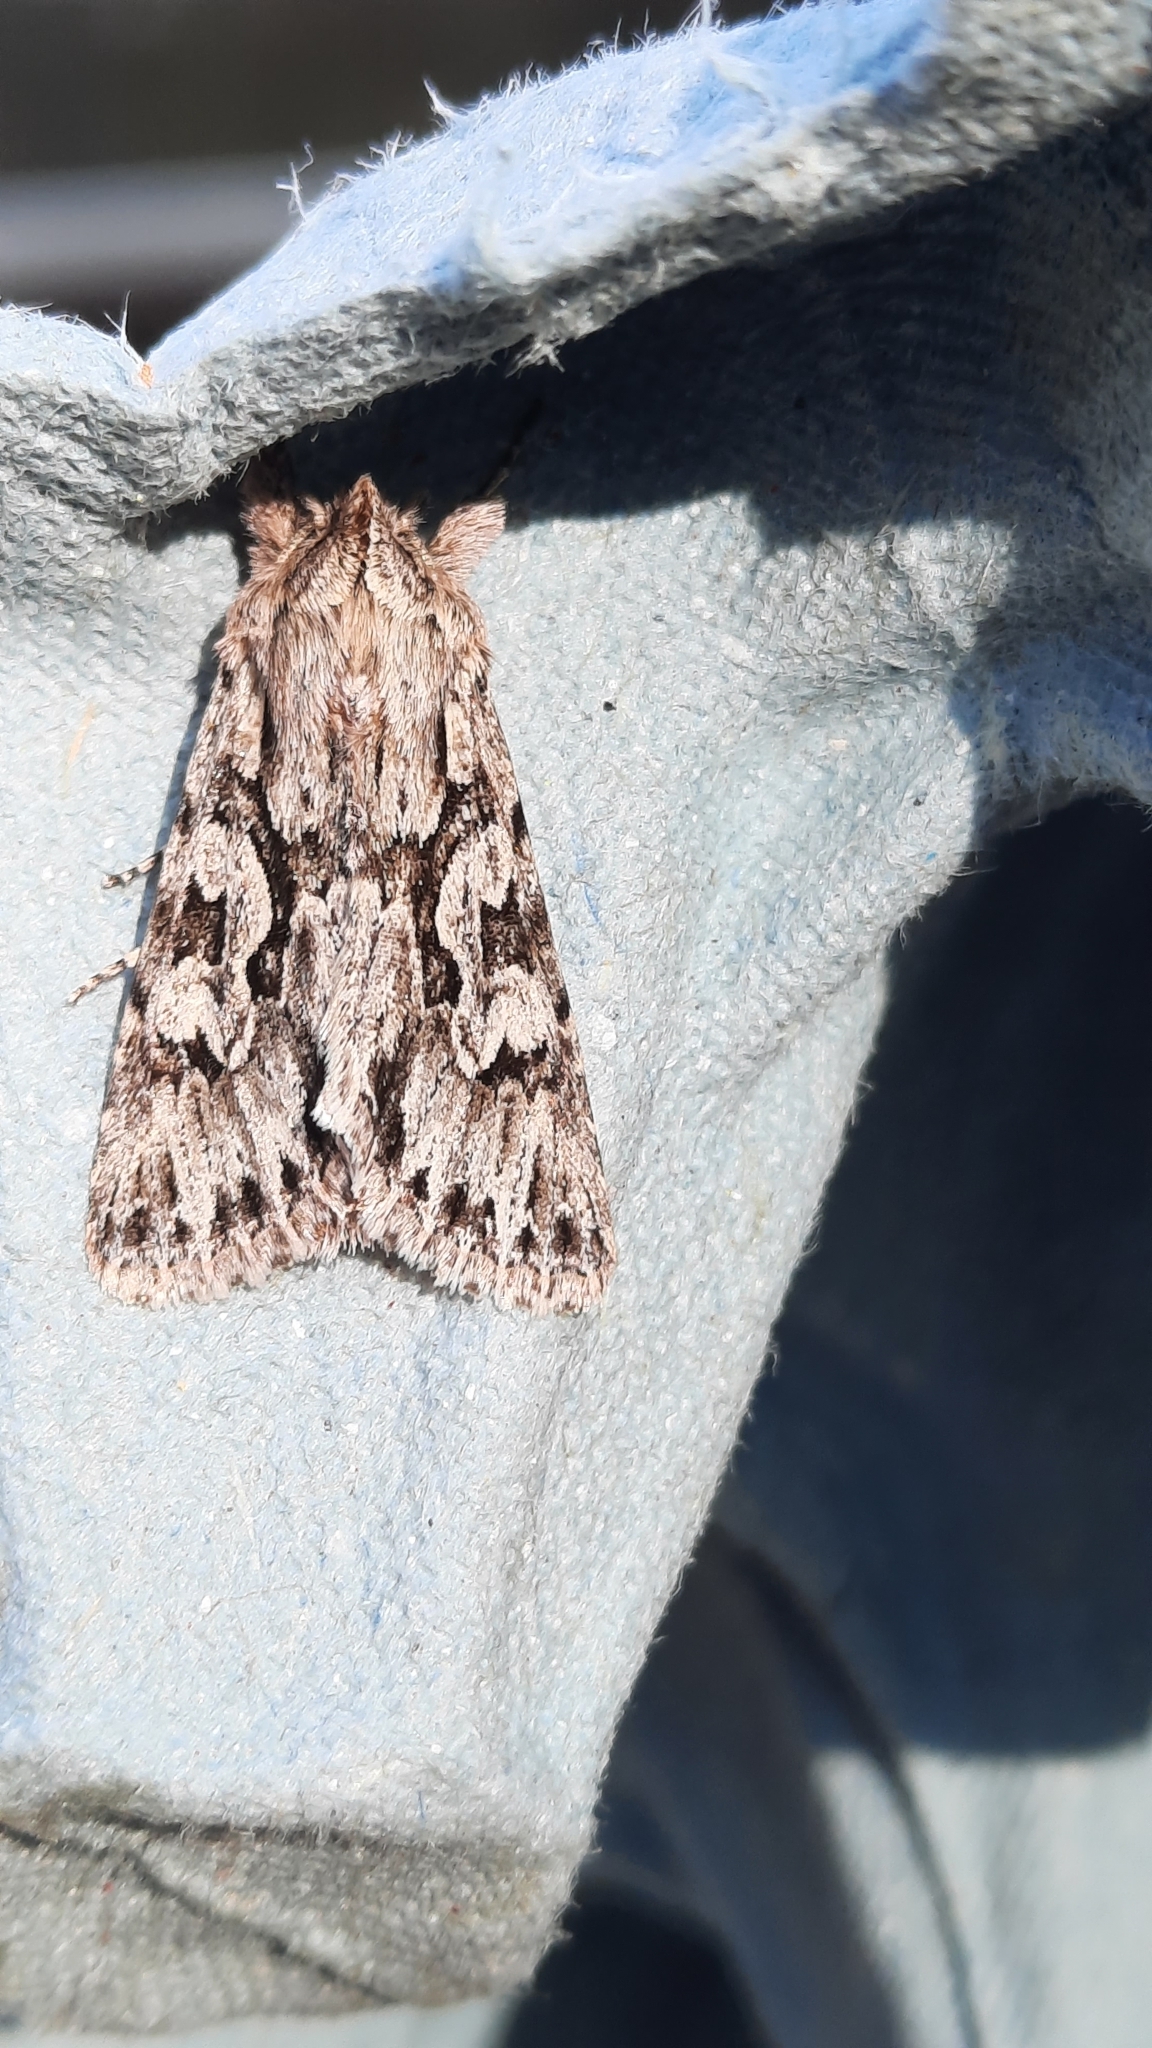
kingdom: Animalia
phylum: Arthropoda
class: Insecta
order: Lepidoptera
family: Noctuidae
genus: Xylocampa
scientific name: Xylocampa areola
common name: Early grey
